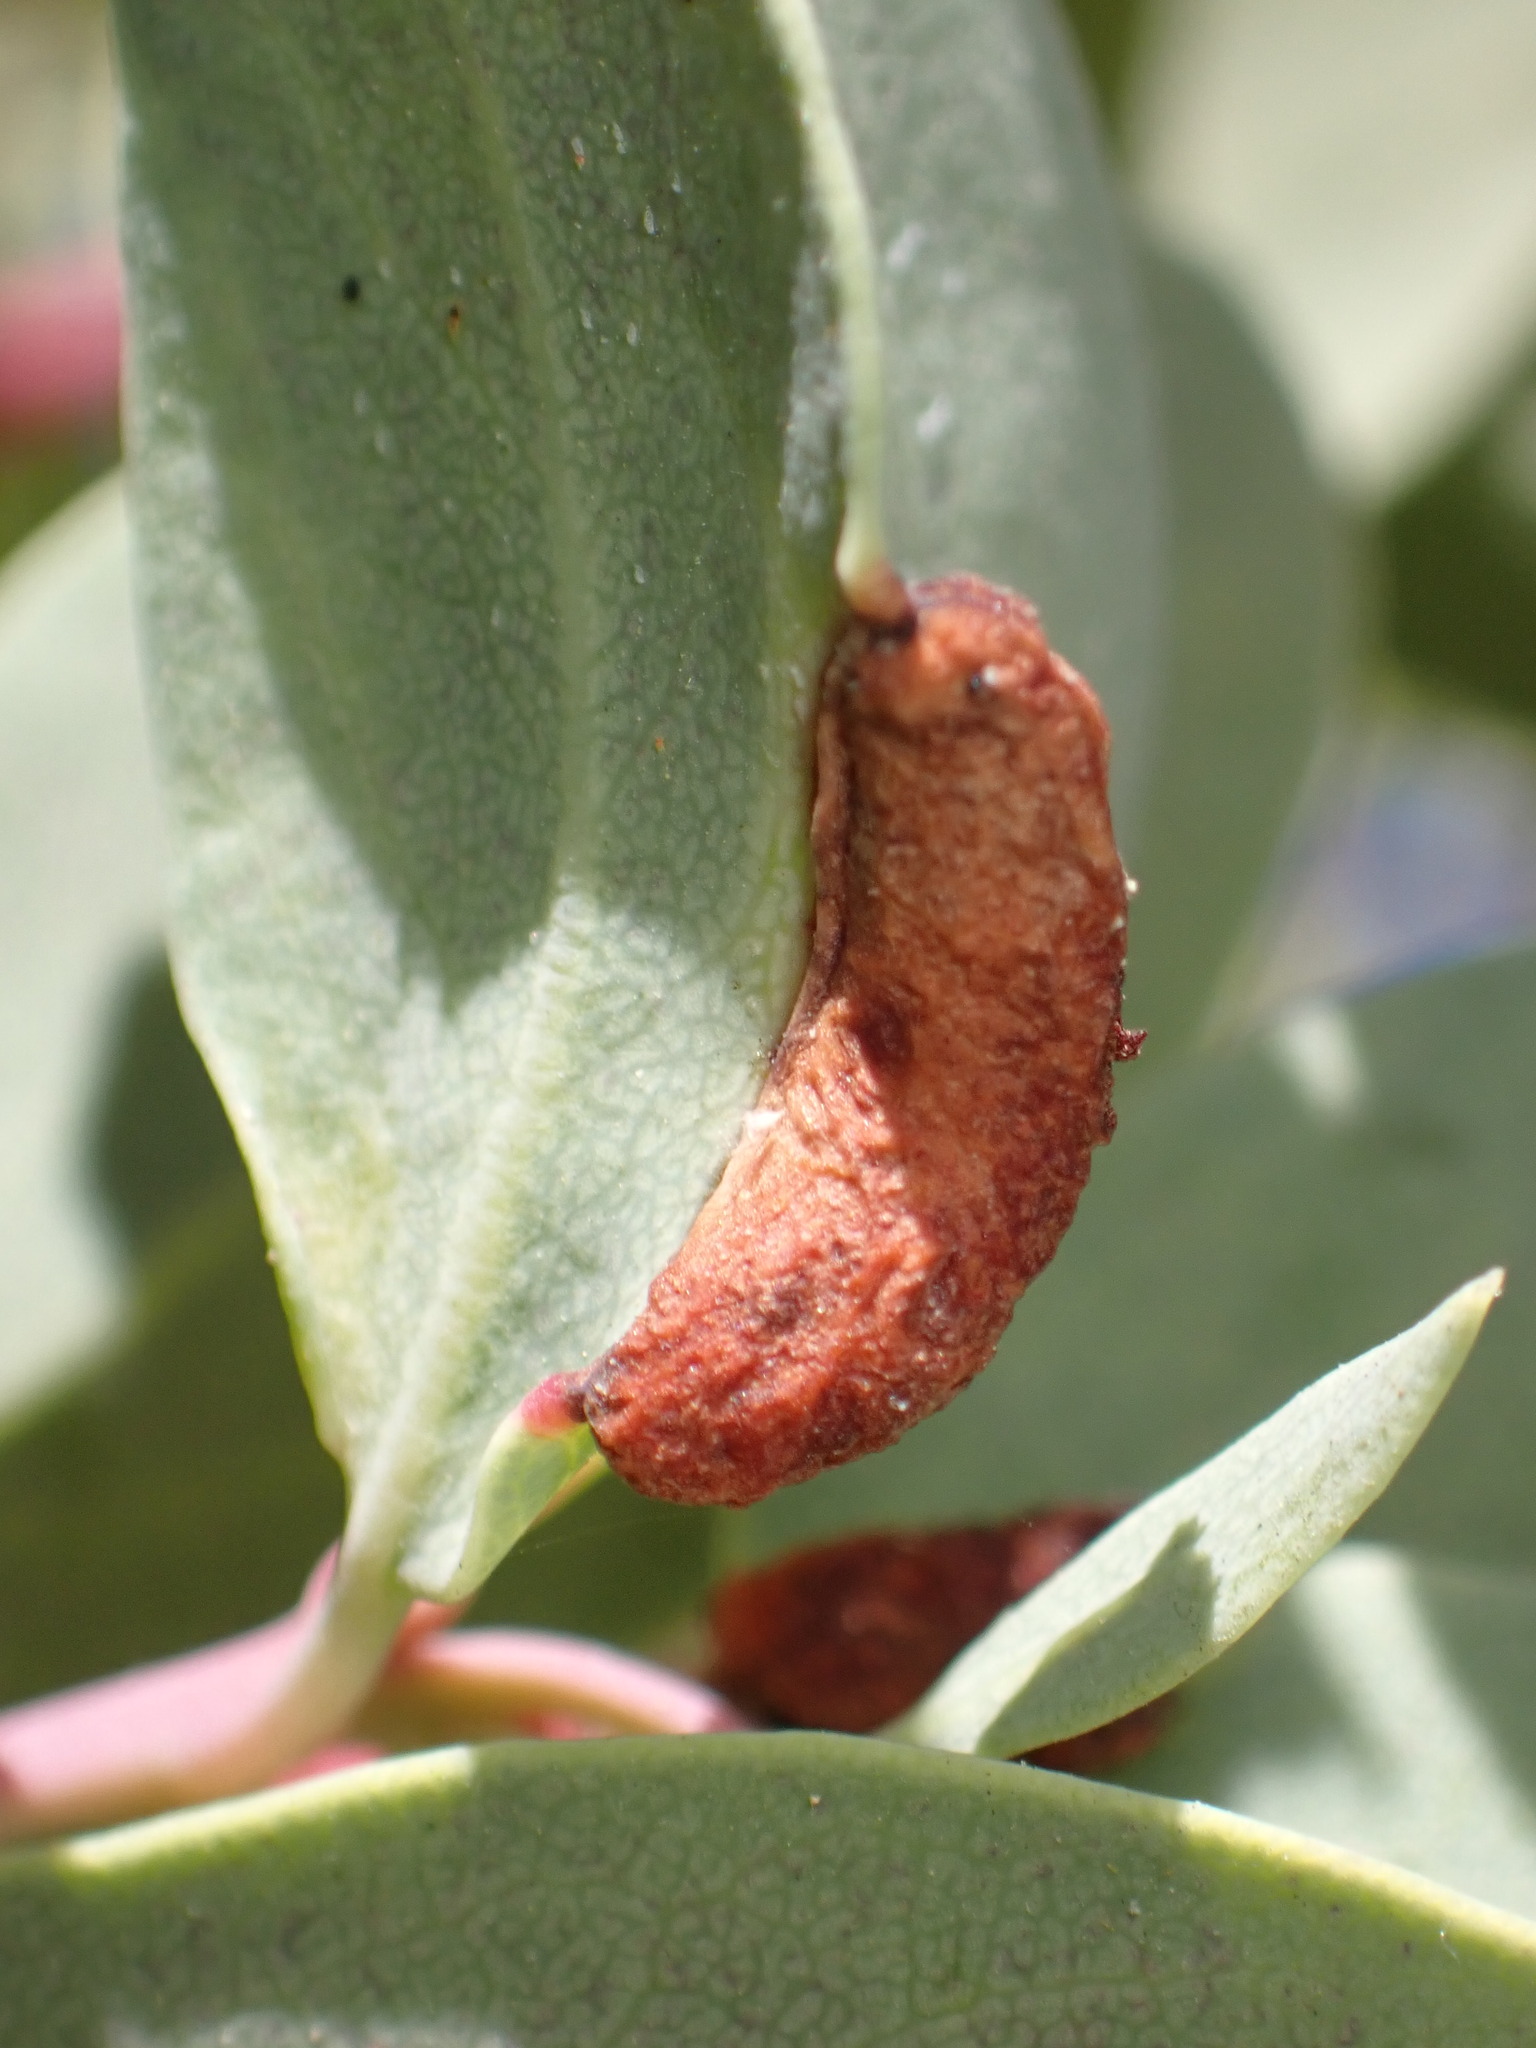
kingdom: Animalia
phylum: Arthropoda
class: Insecta
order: Hemiptera
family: Aphididae
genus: Tamalia
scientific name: Tamalia
